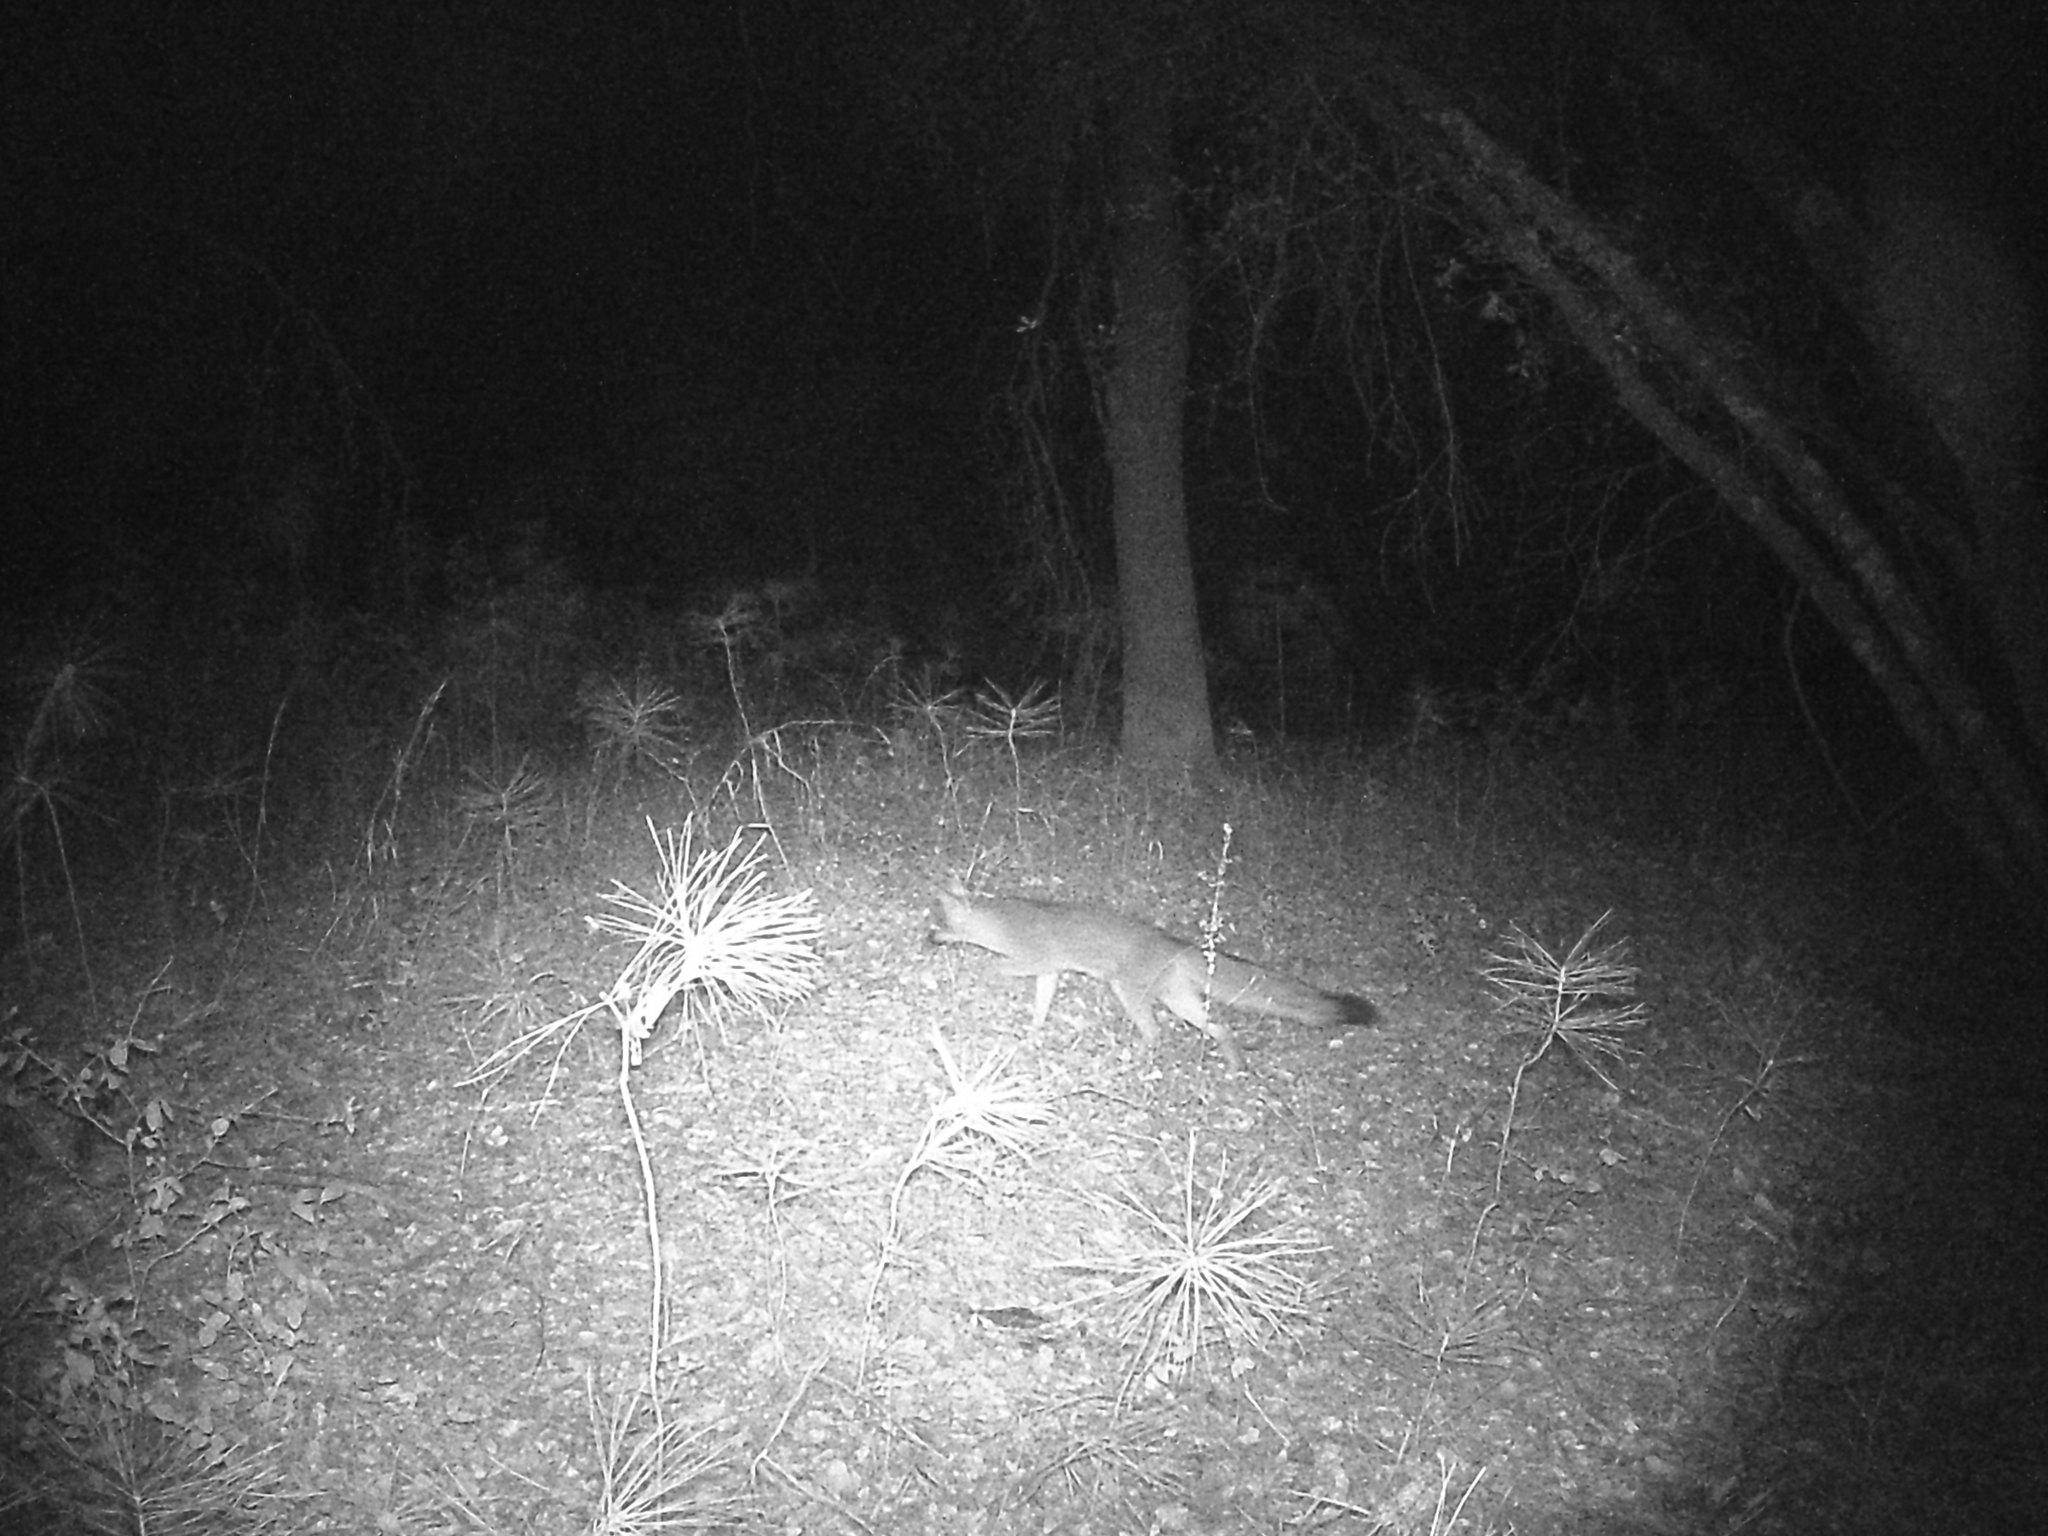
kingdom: Animalia
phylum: Chordata
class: Mammalia
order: Carnivora
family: Canidae
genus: Urocyon
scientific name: Urocyon cinereoargenteus
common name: Gray fox
